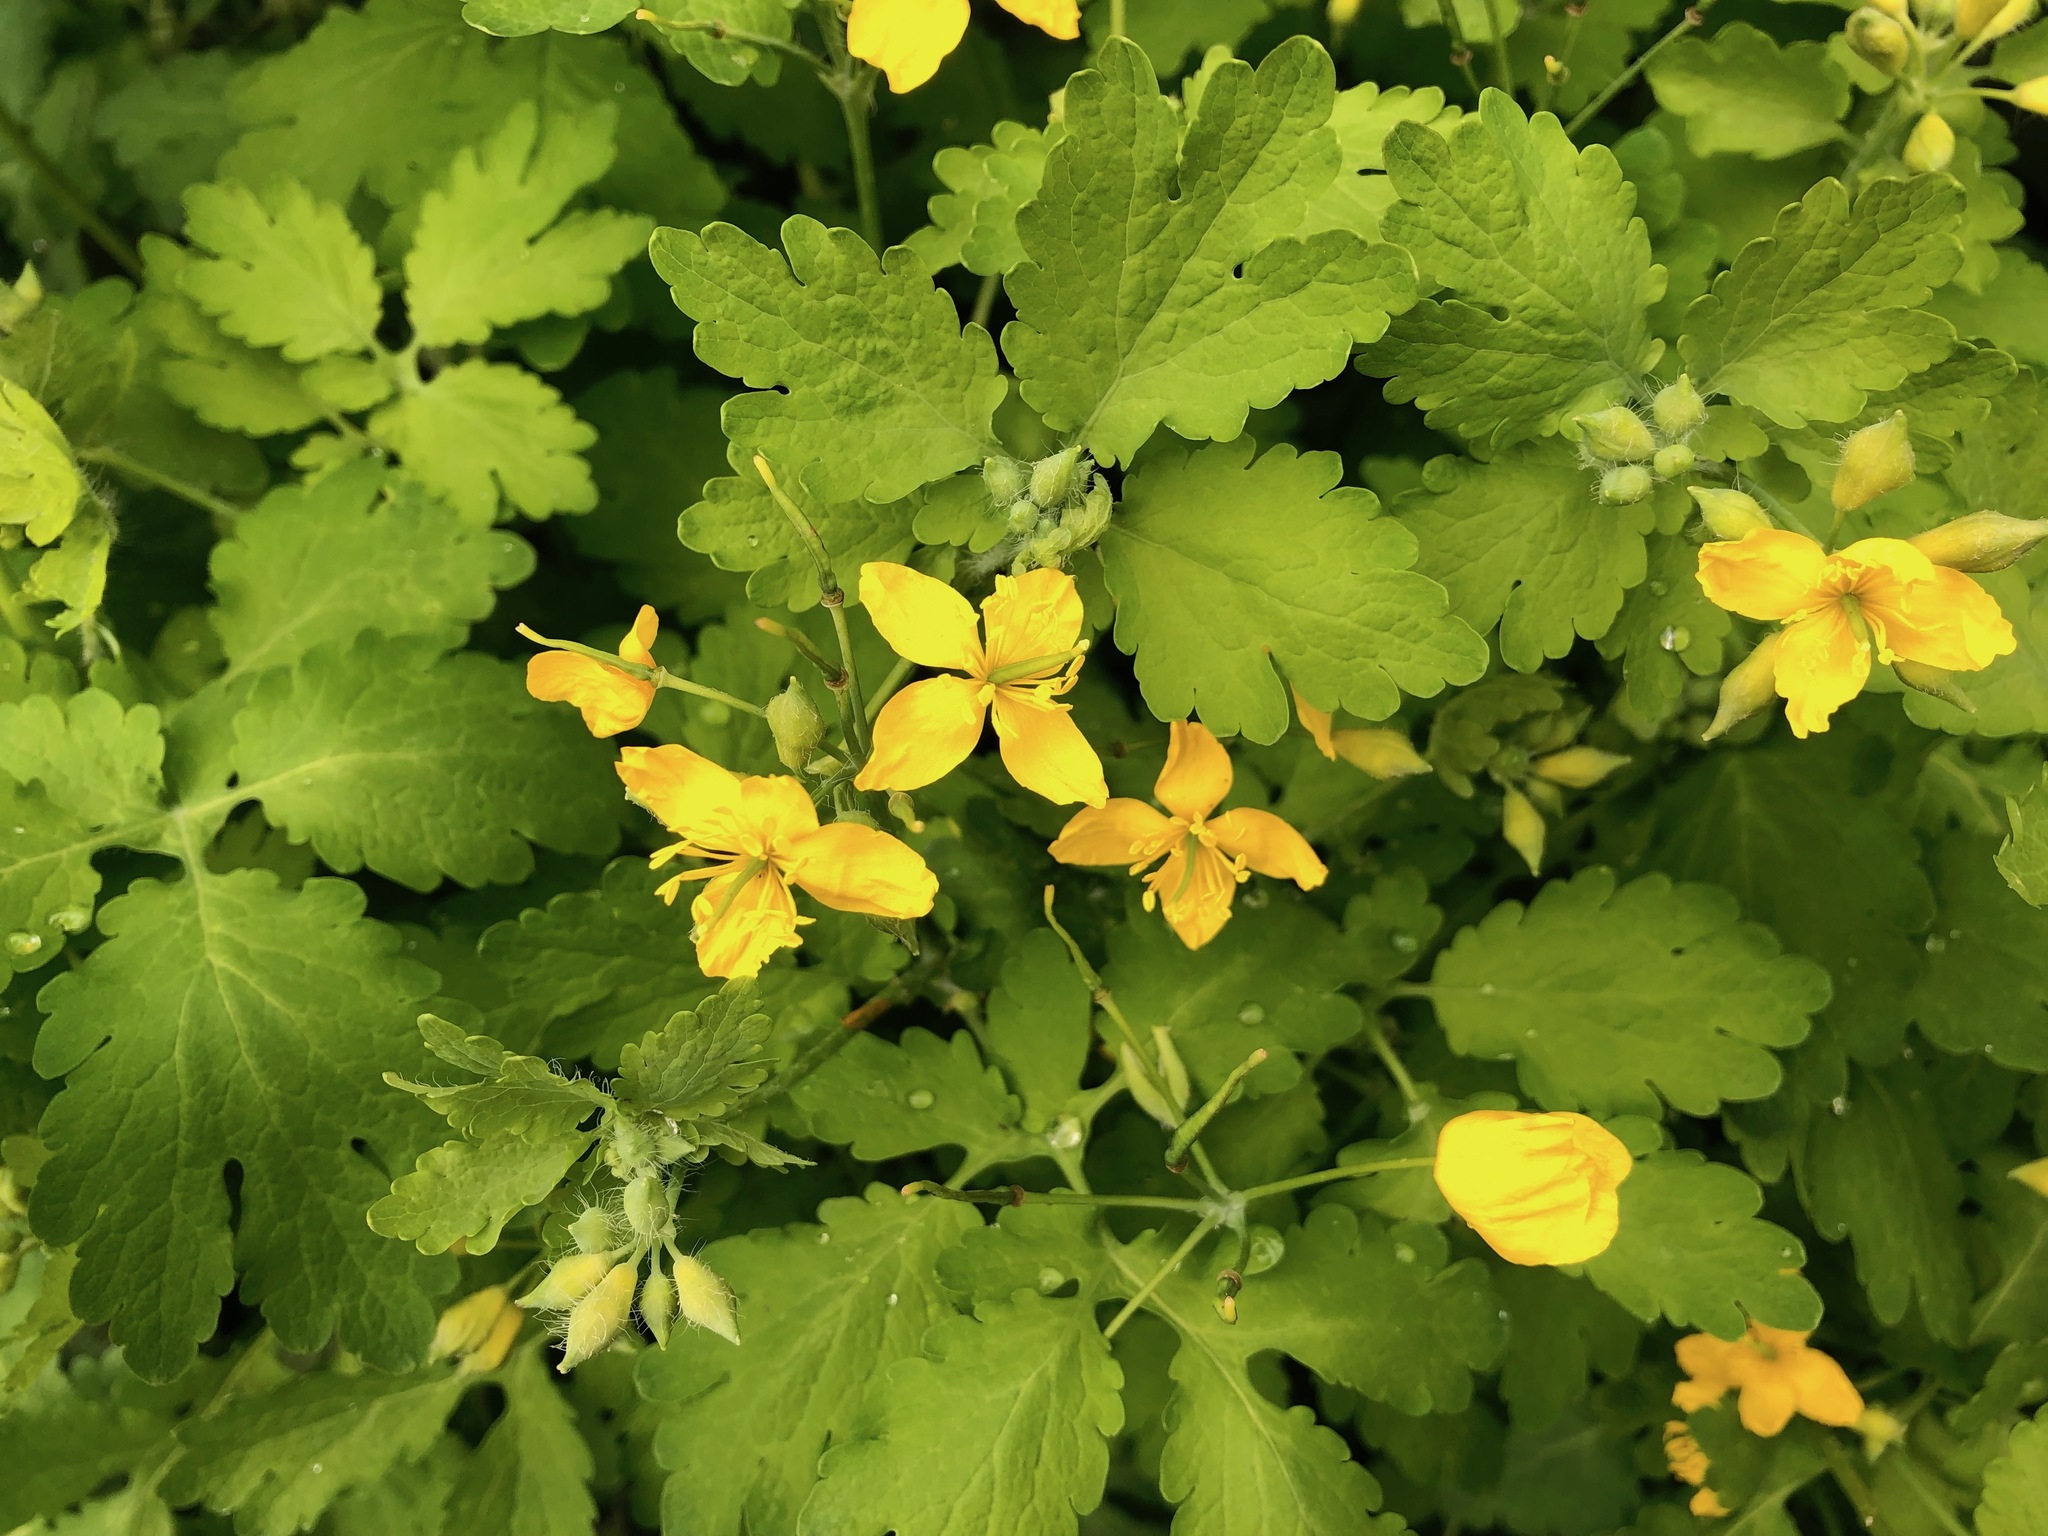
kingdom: Plantae
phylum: Tracheophyta
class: Magnoliopsida
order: Ranunculales
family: Papaveraceae
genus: Chelidonium
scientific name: Chelidonium majus
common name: Greater celandine
